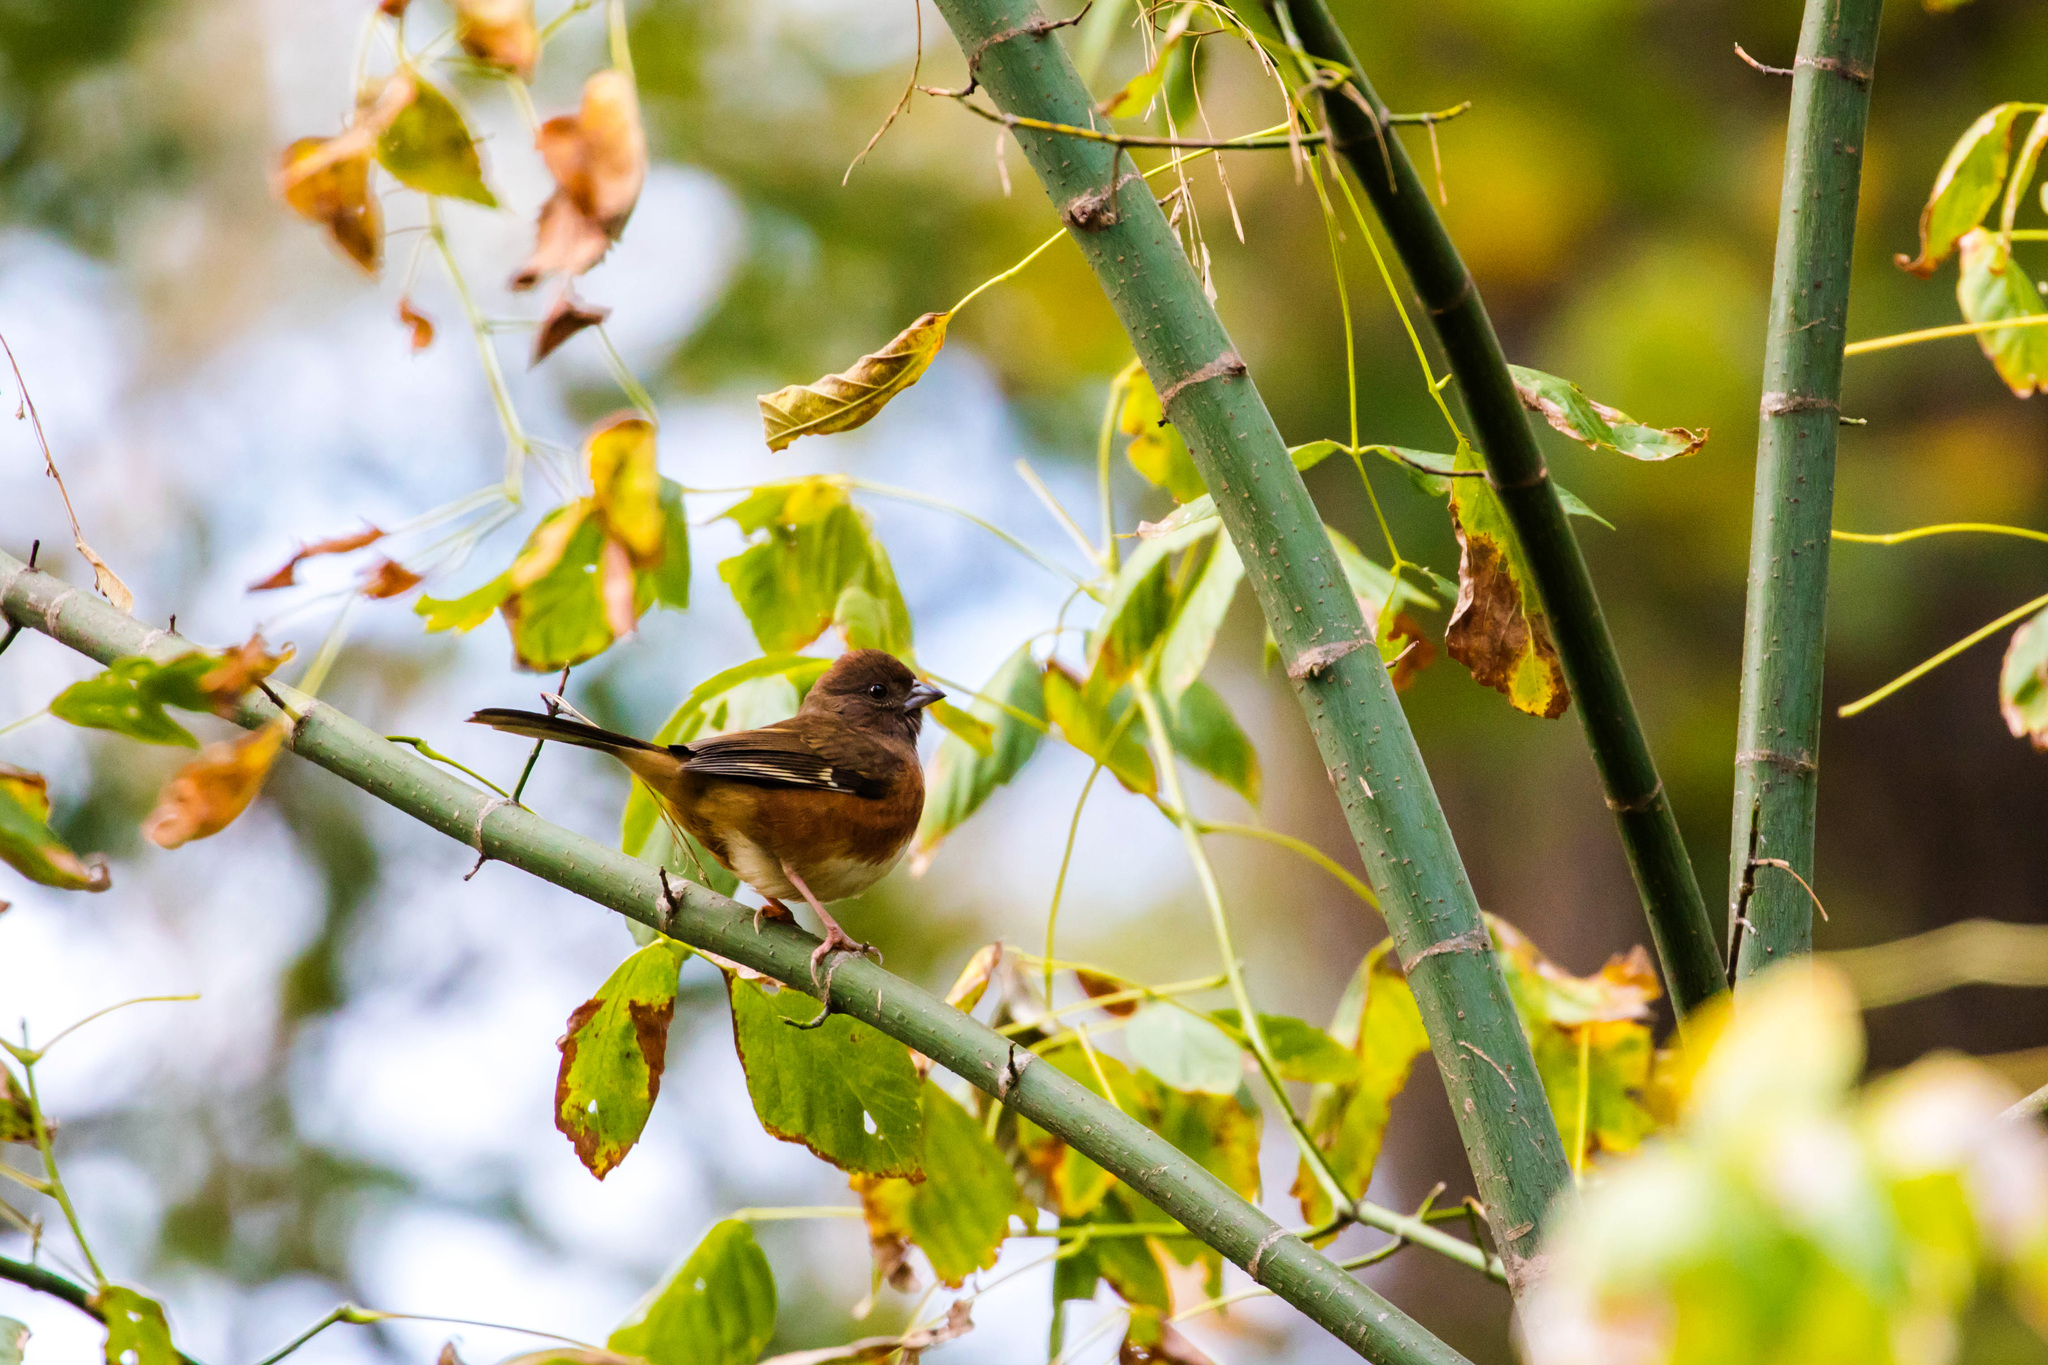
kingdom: Animalia
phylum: Chordata
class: Aves
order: Passeriformes
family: Passerellidae
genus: Pipilo
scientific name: Pipilo erythrophthalmus
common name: Eastern towhee
